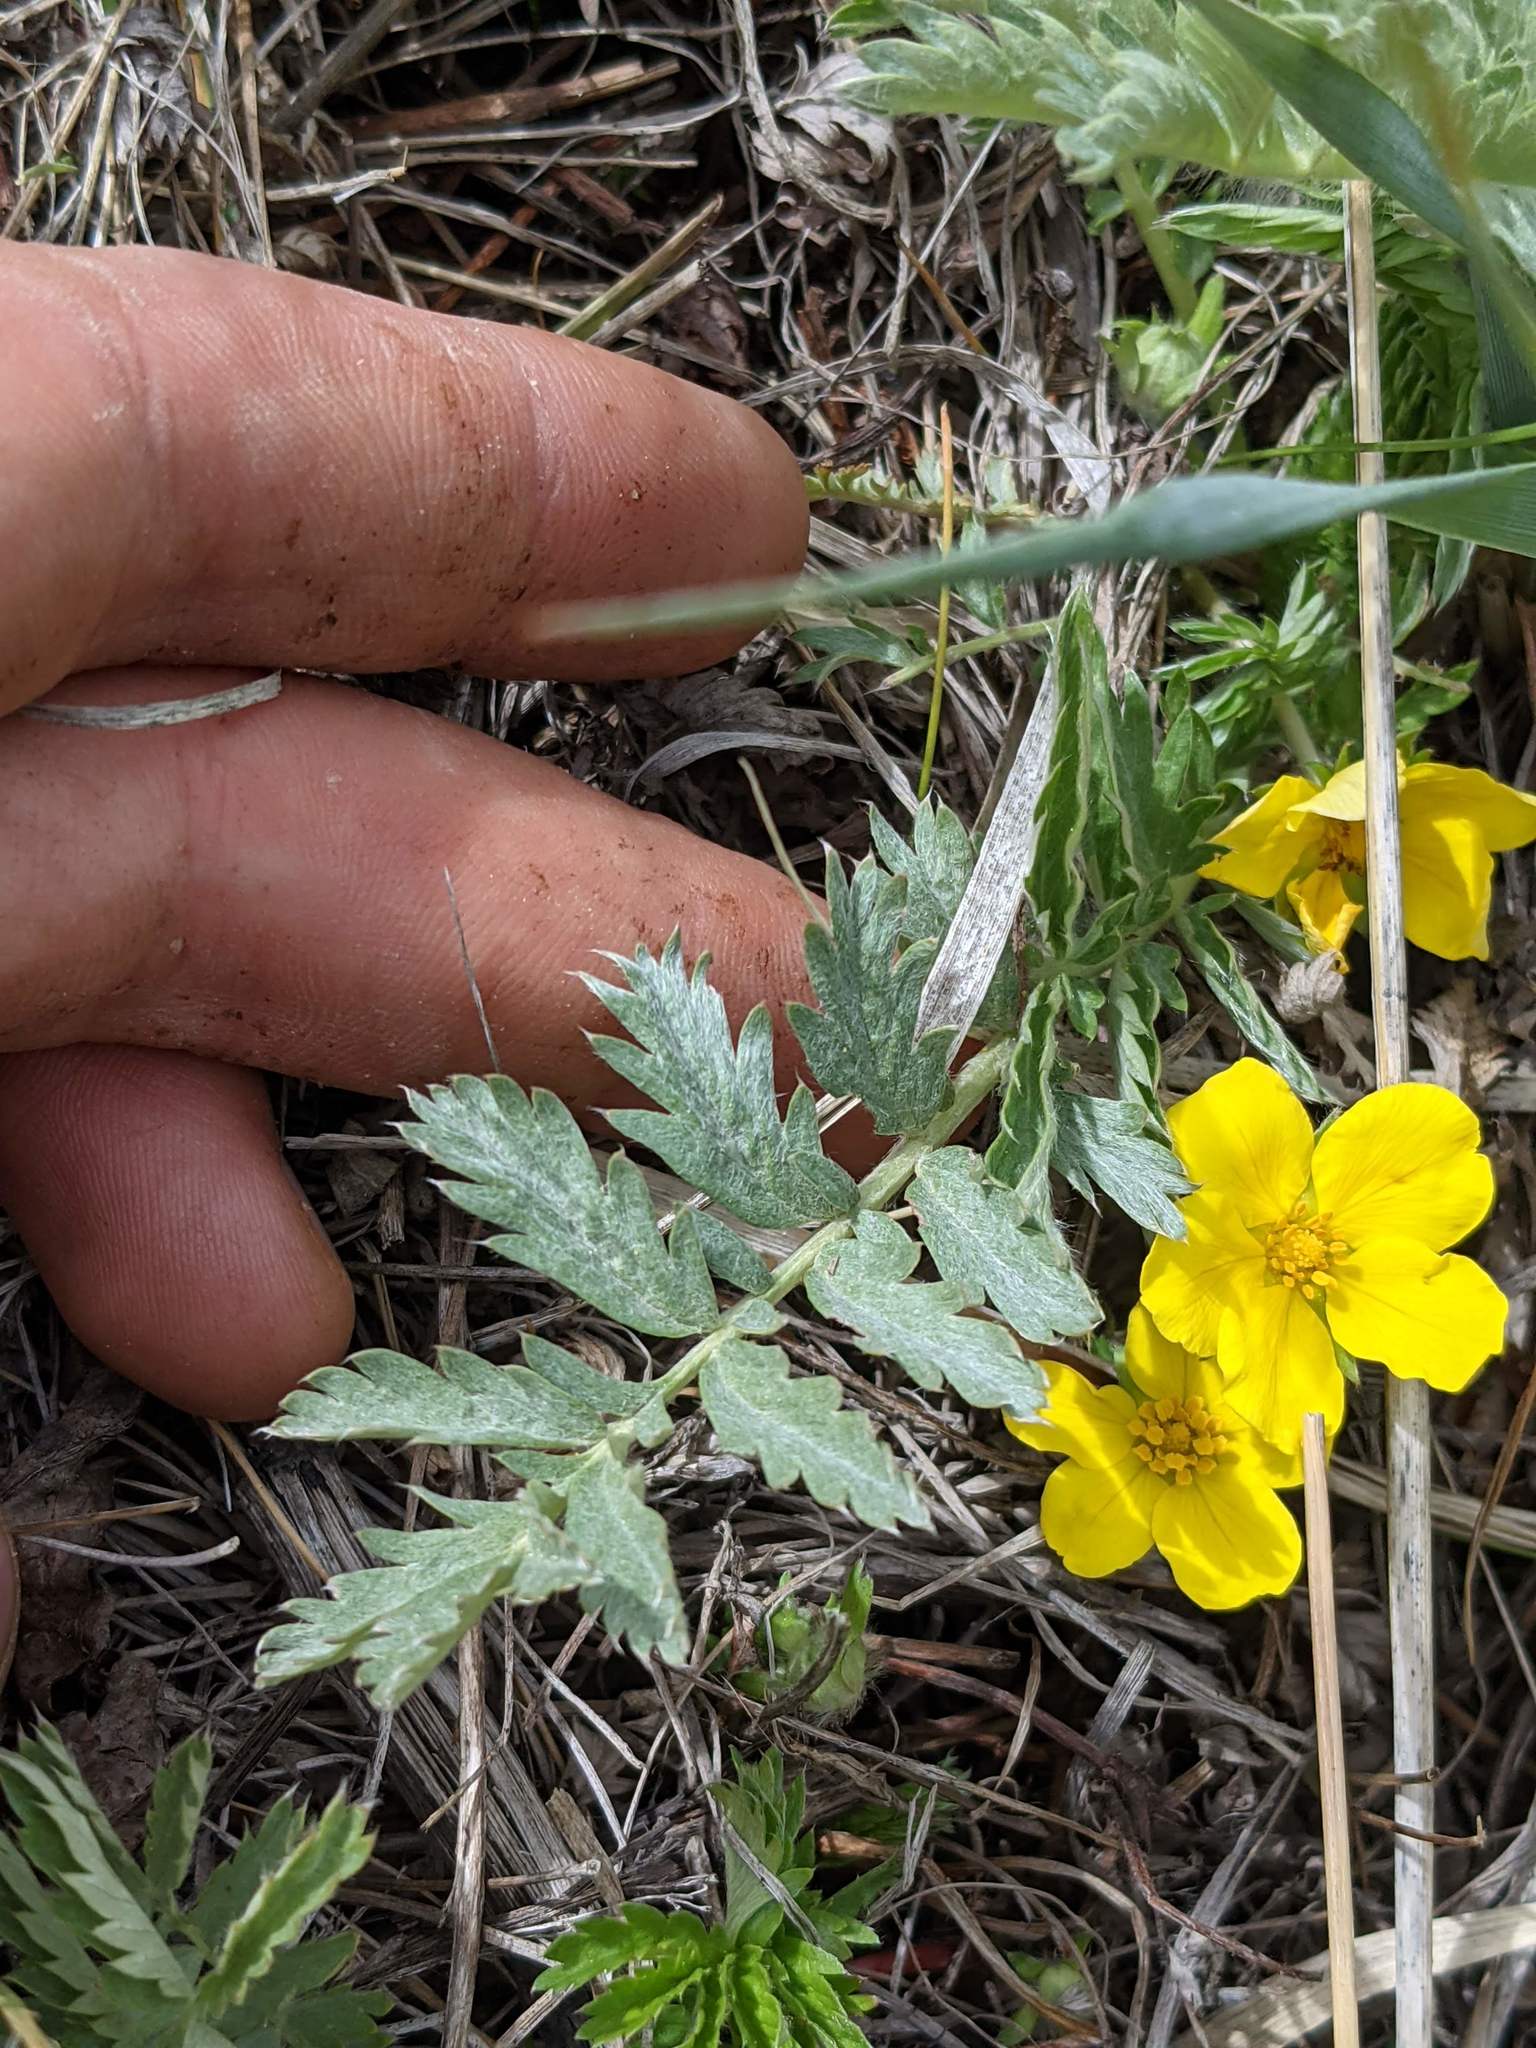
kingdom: Plantae
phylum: Tracheophyta
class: Magnoliopsida
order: Rosales
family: Rosaceae
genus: Argentina
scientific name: Argentina anserina
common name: Common silverweed
